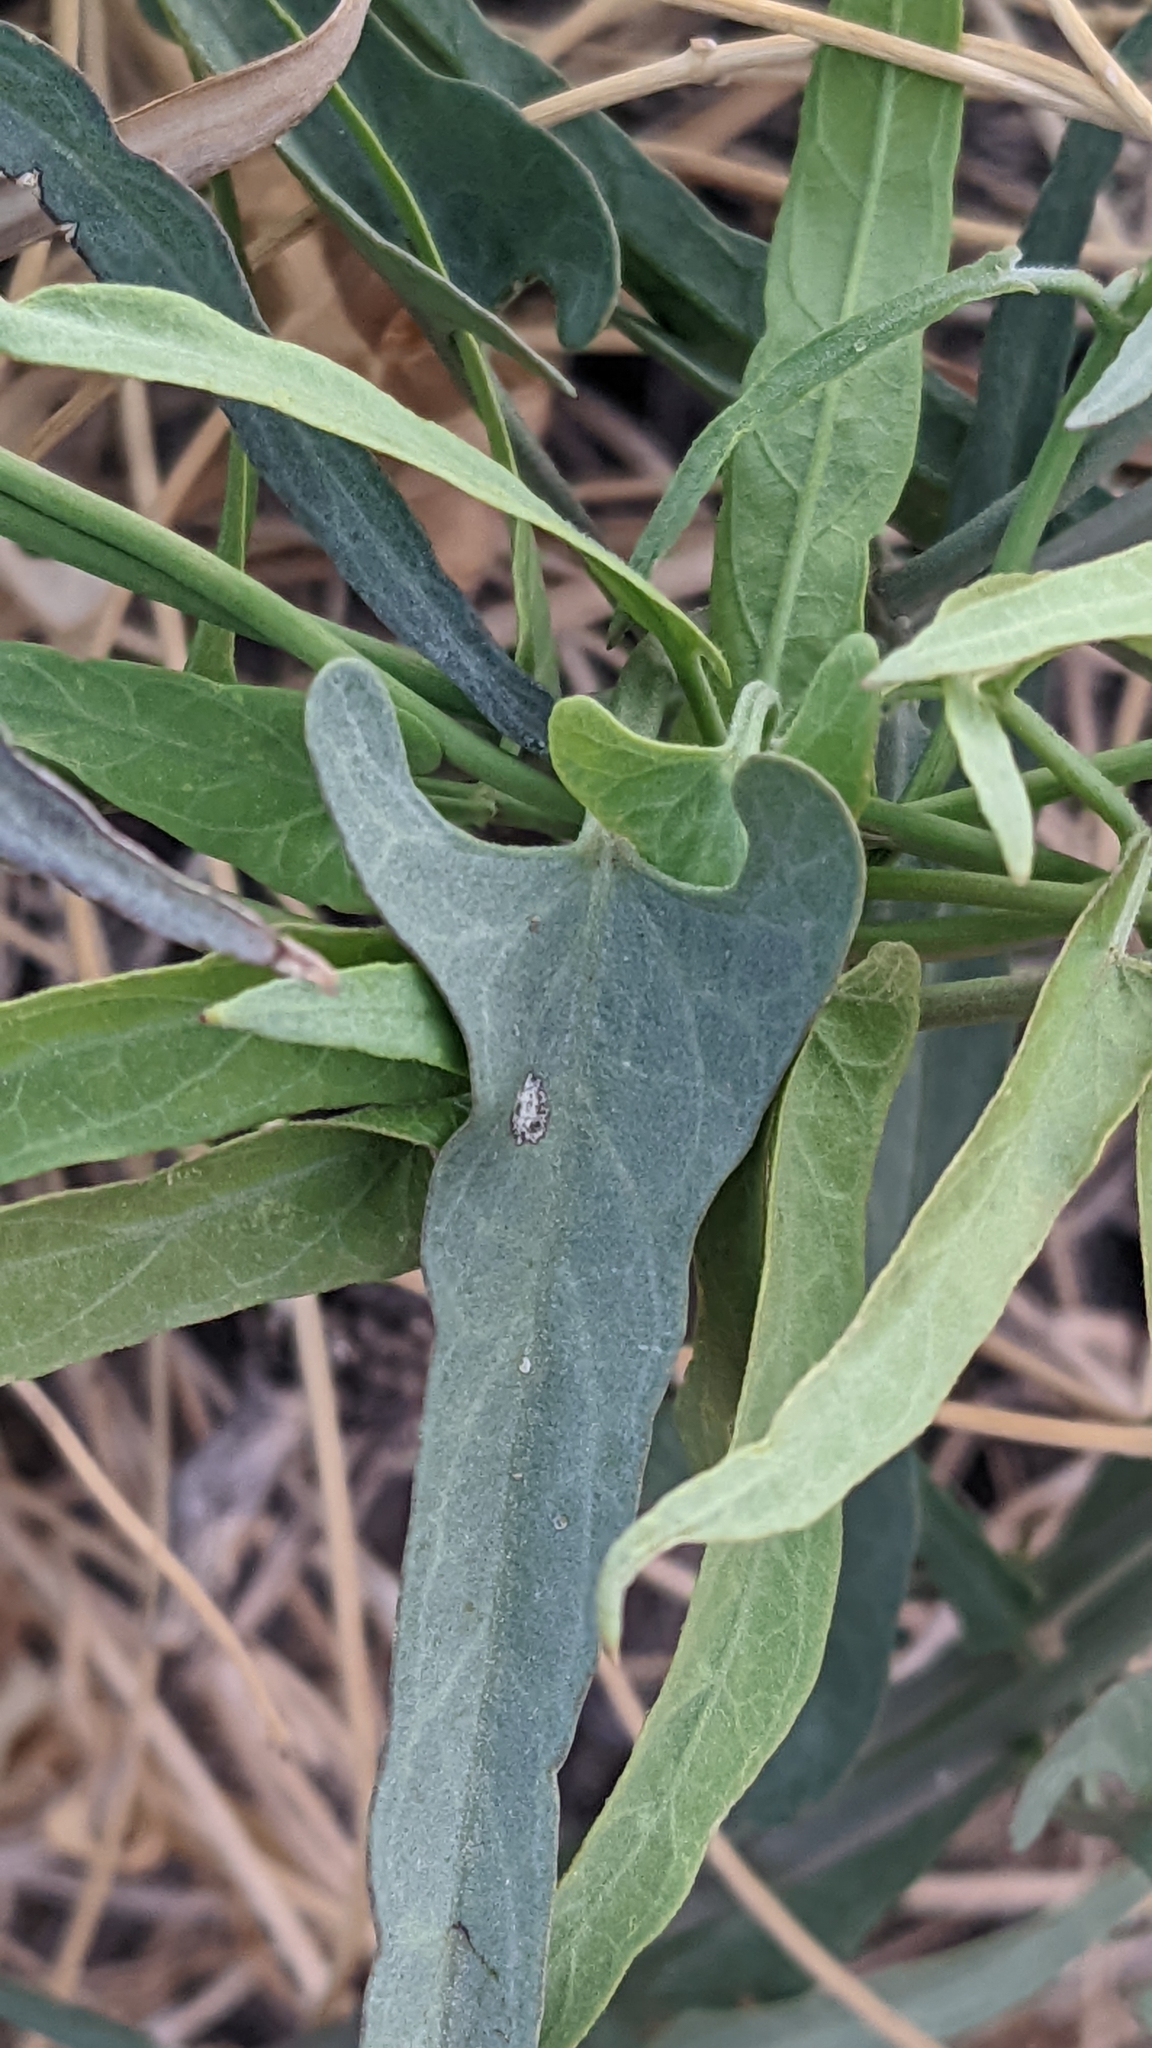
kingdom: Plantae
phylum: Tracheophyta
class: Magnoliopsida
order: Gentianales
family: Apocynaceae
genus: Funastrum
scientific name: Funastrum heterophyllum
